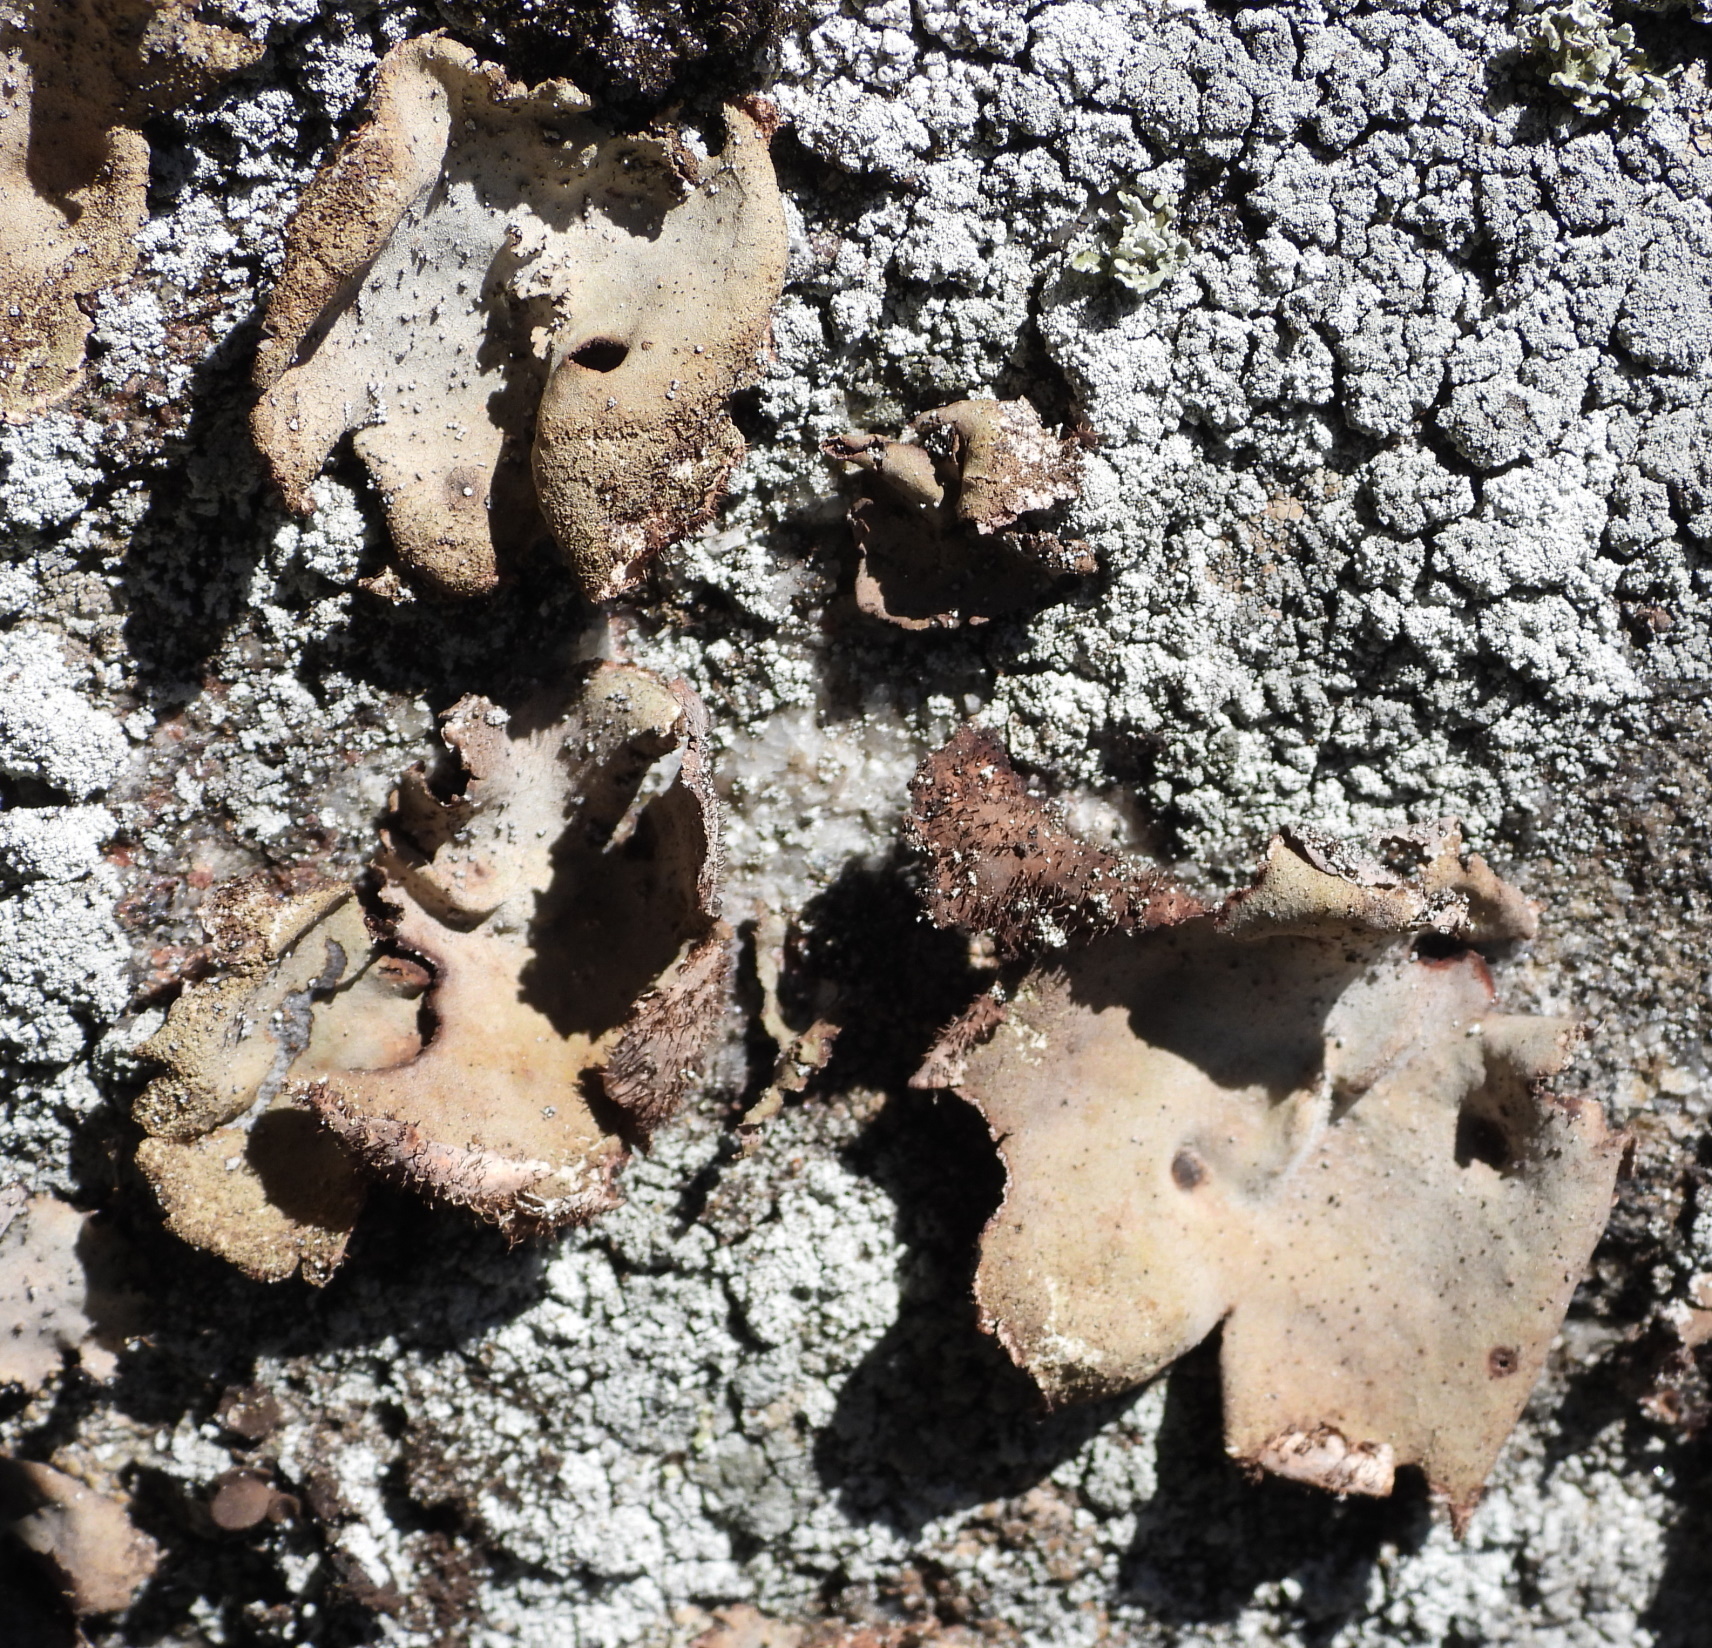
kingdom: Fungi
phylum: Ascomycota
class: Lecanoromycetes
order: Umbilicariales
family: Umbilicariaceae
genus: Umbilicaria
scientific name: Umbilicaria hirsuta
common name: Granulating rocktripe lichen
